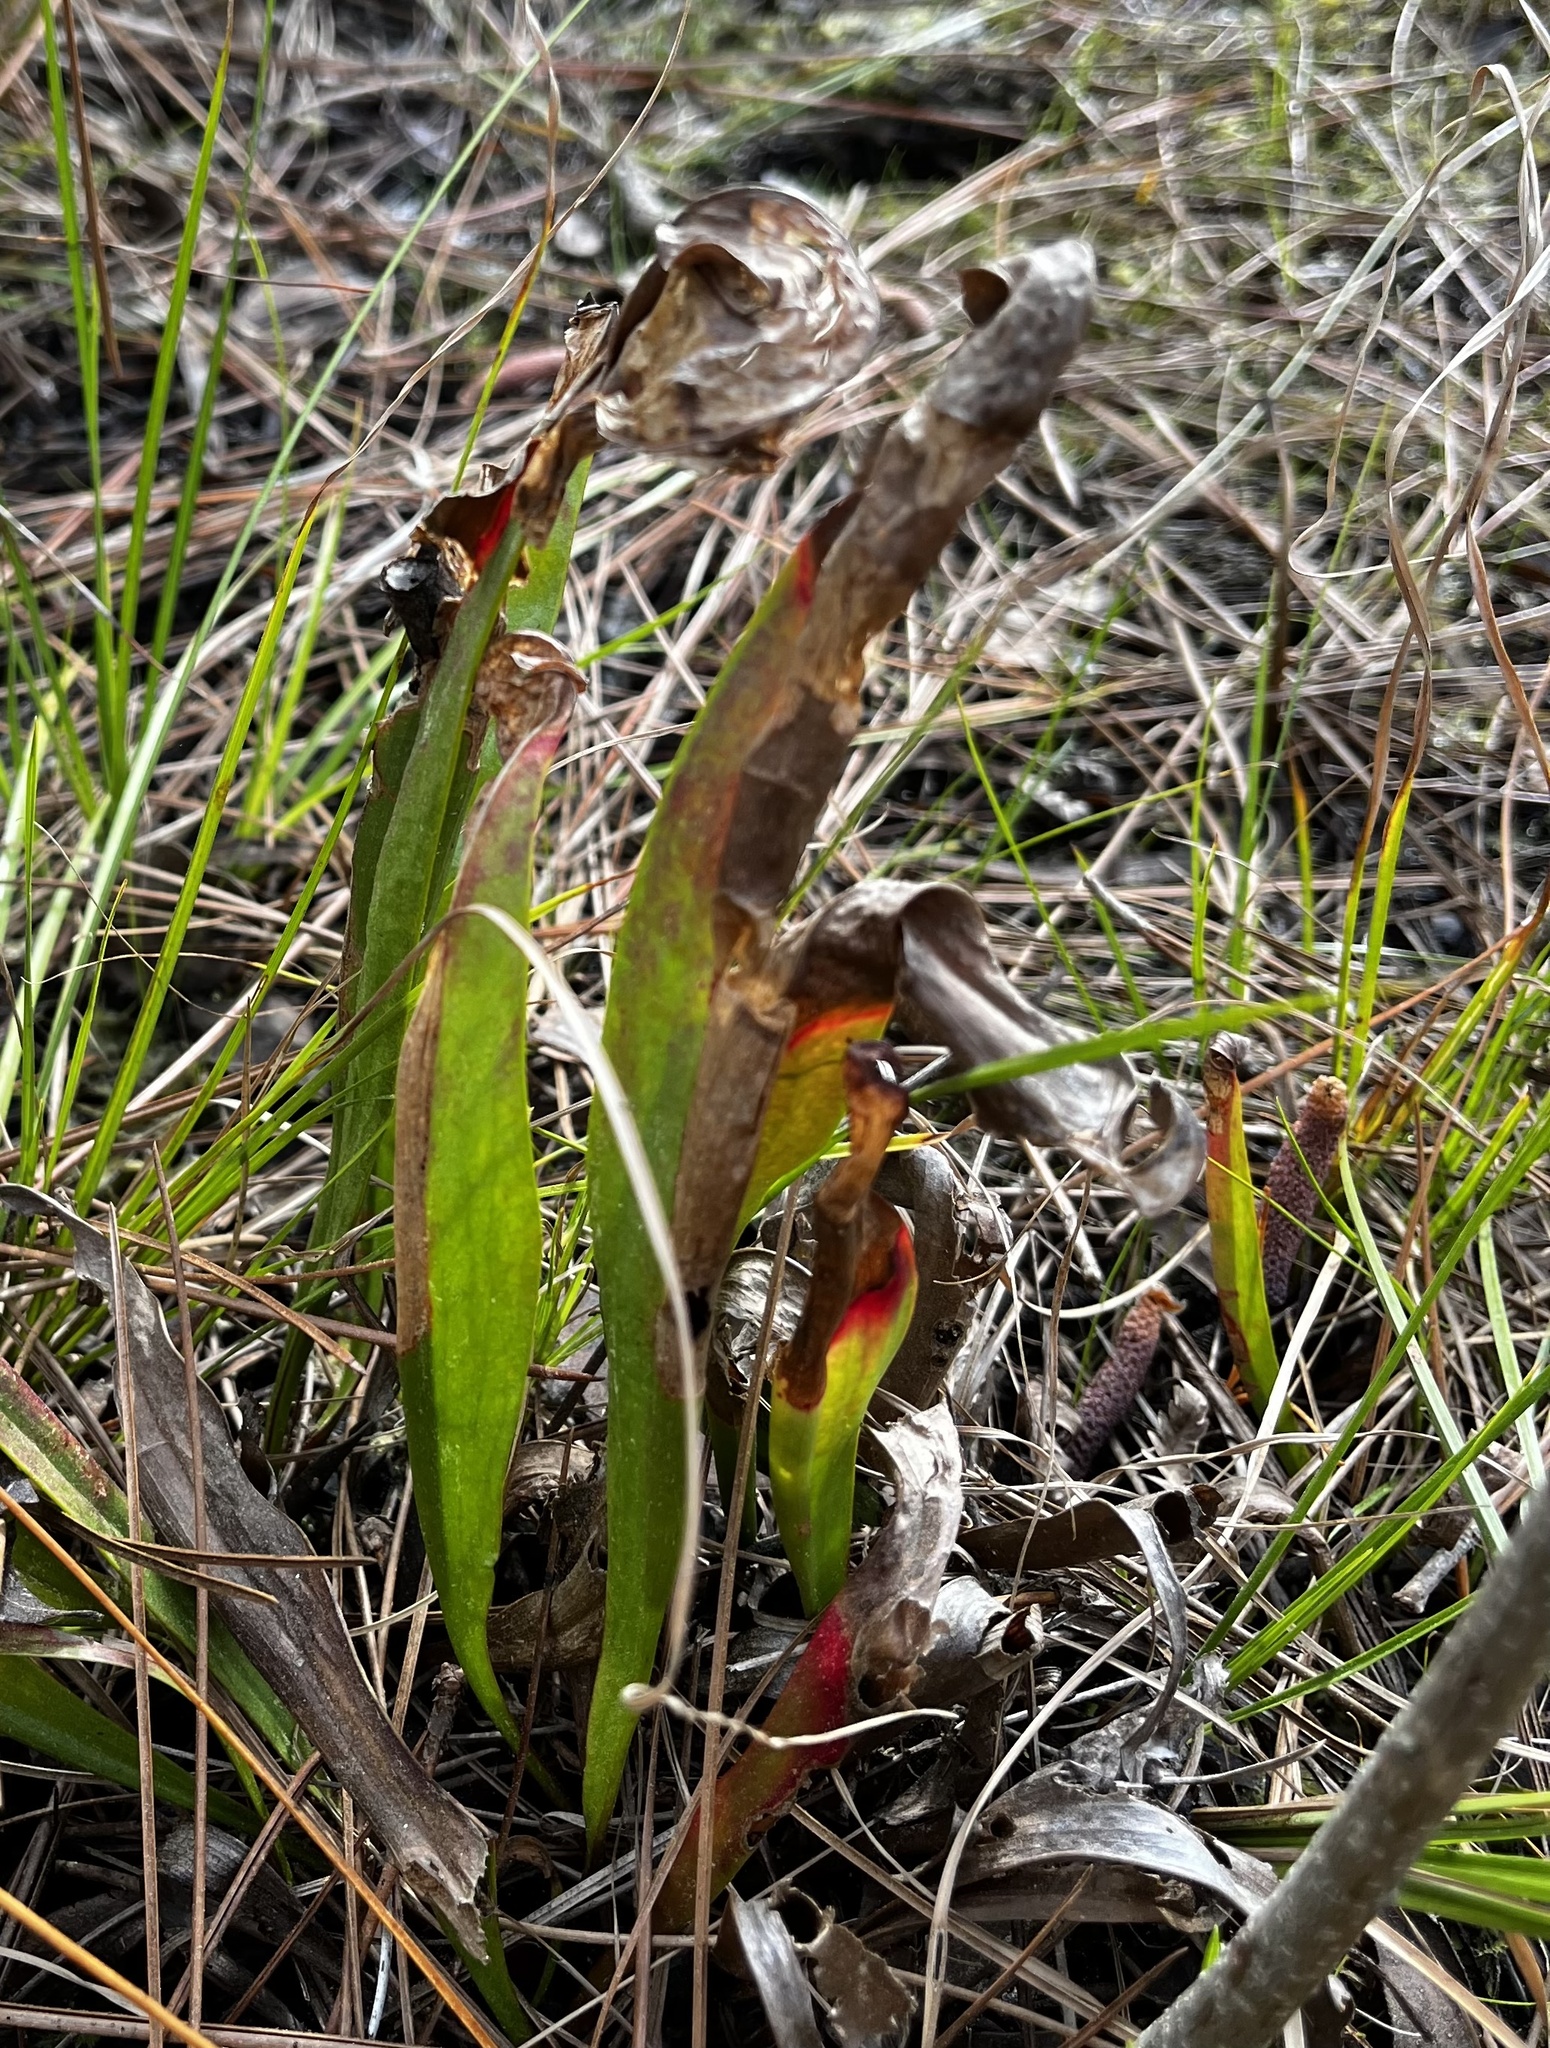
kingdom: Plantae
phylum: Tracheophyta
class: Magnoliopsida
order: Ericales
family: Sarraceniaceae
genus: Sarracenia
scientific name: Sarracenia minor
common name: Rainhat-trumpet
